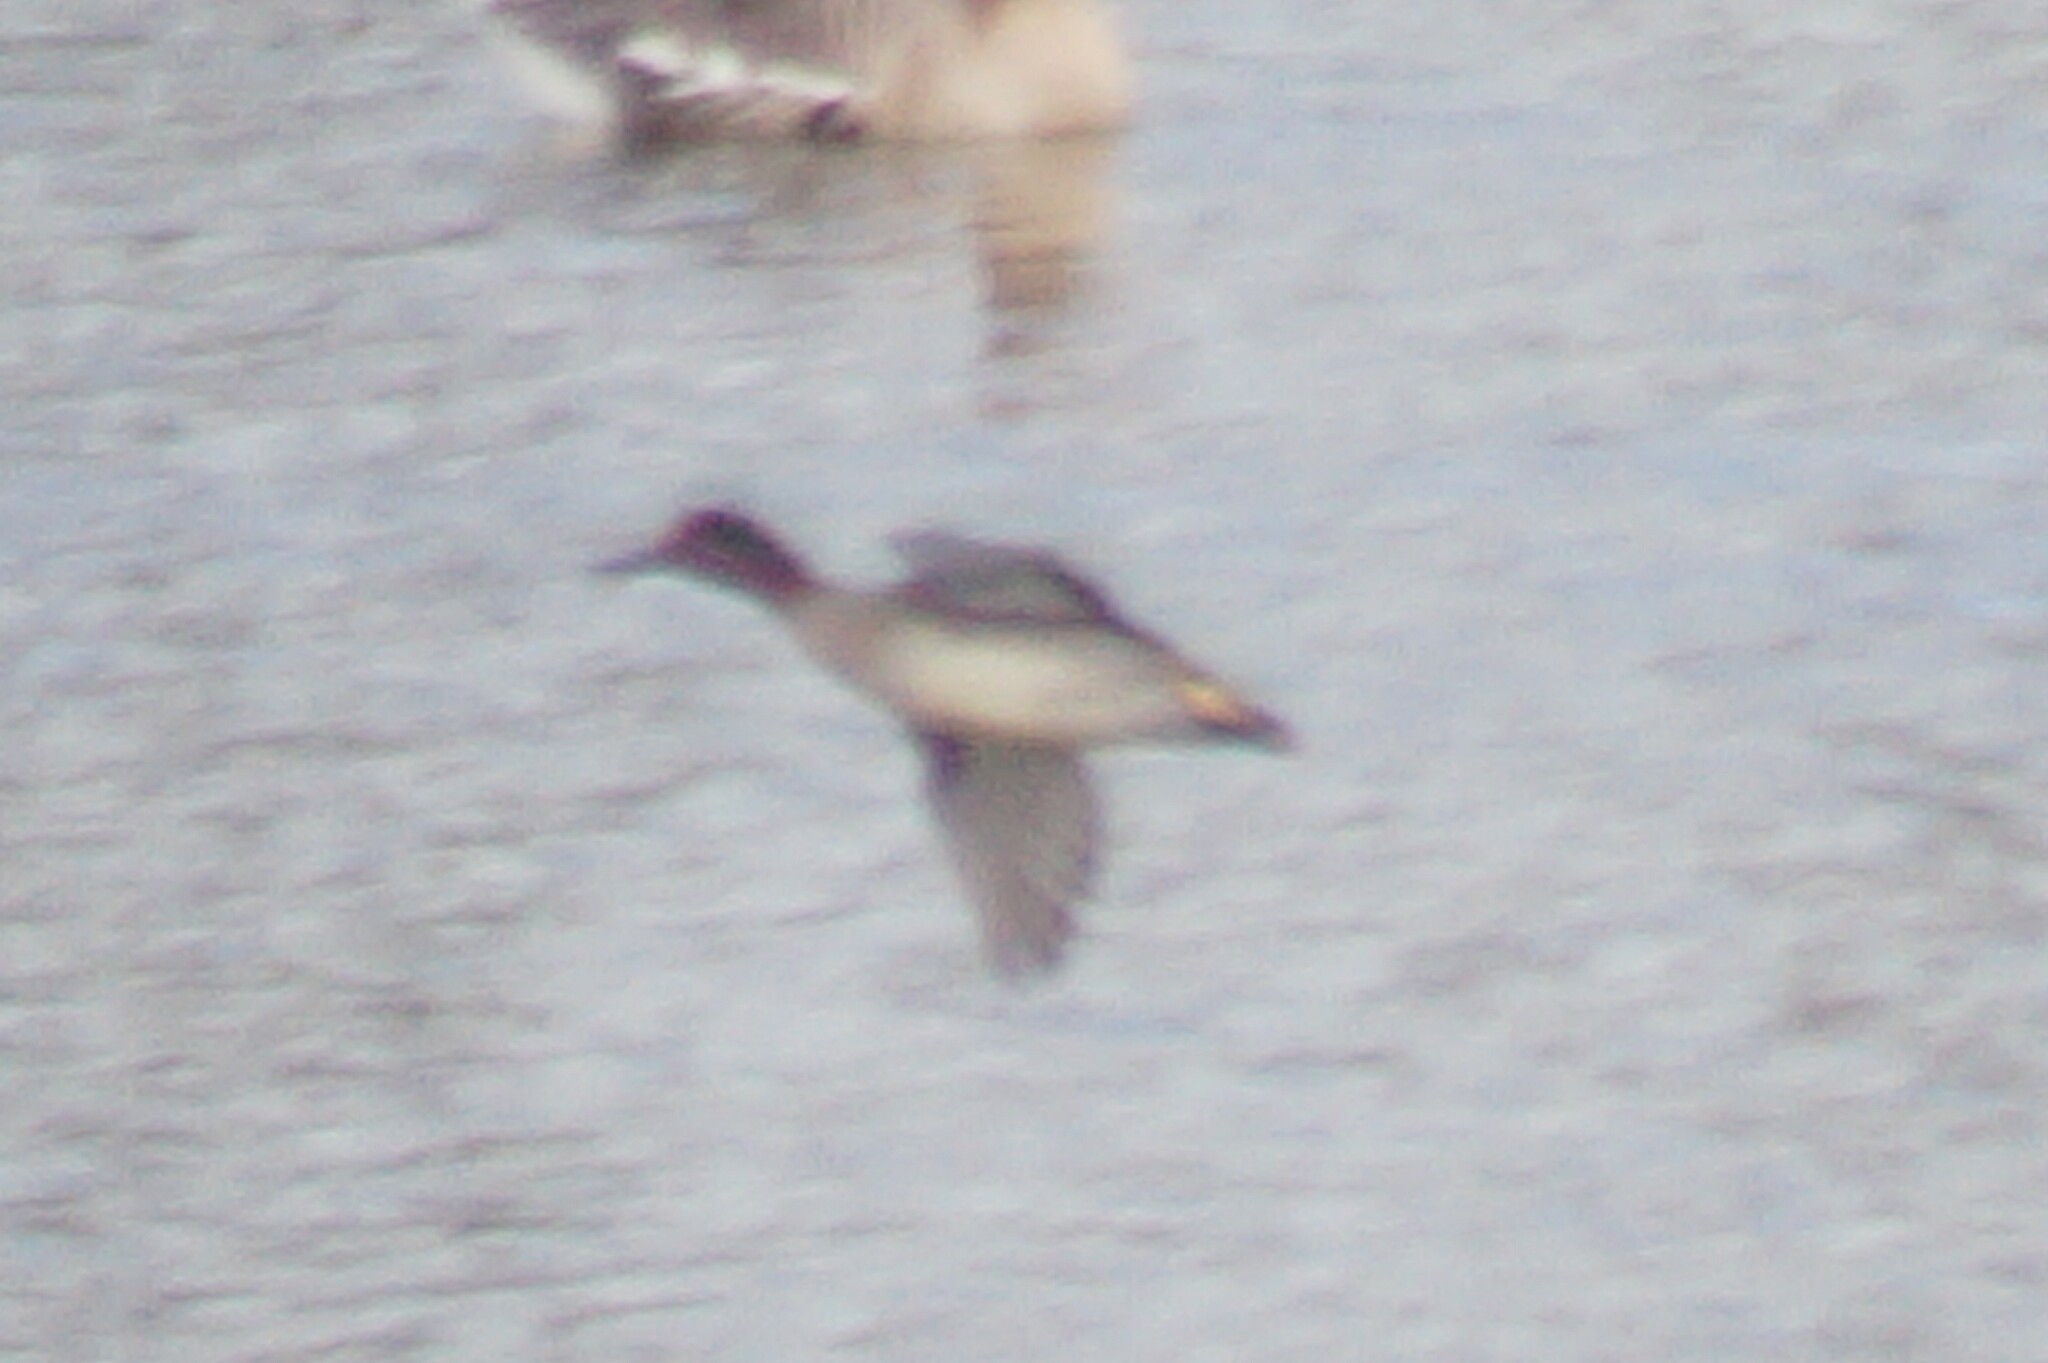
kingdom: Animalia
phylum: Chordata
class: Aves
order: Anseriformes
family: Anatidae
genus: Anas
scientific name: Anas crecca
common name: Eurasian teal
